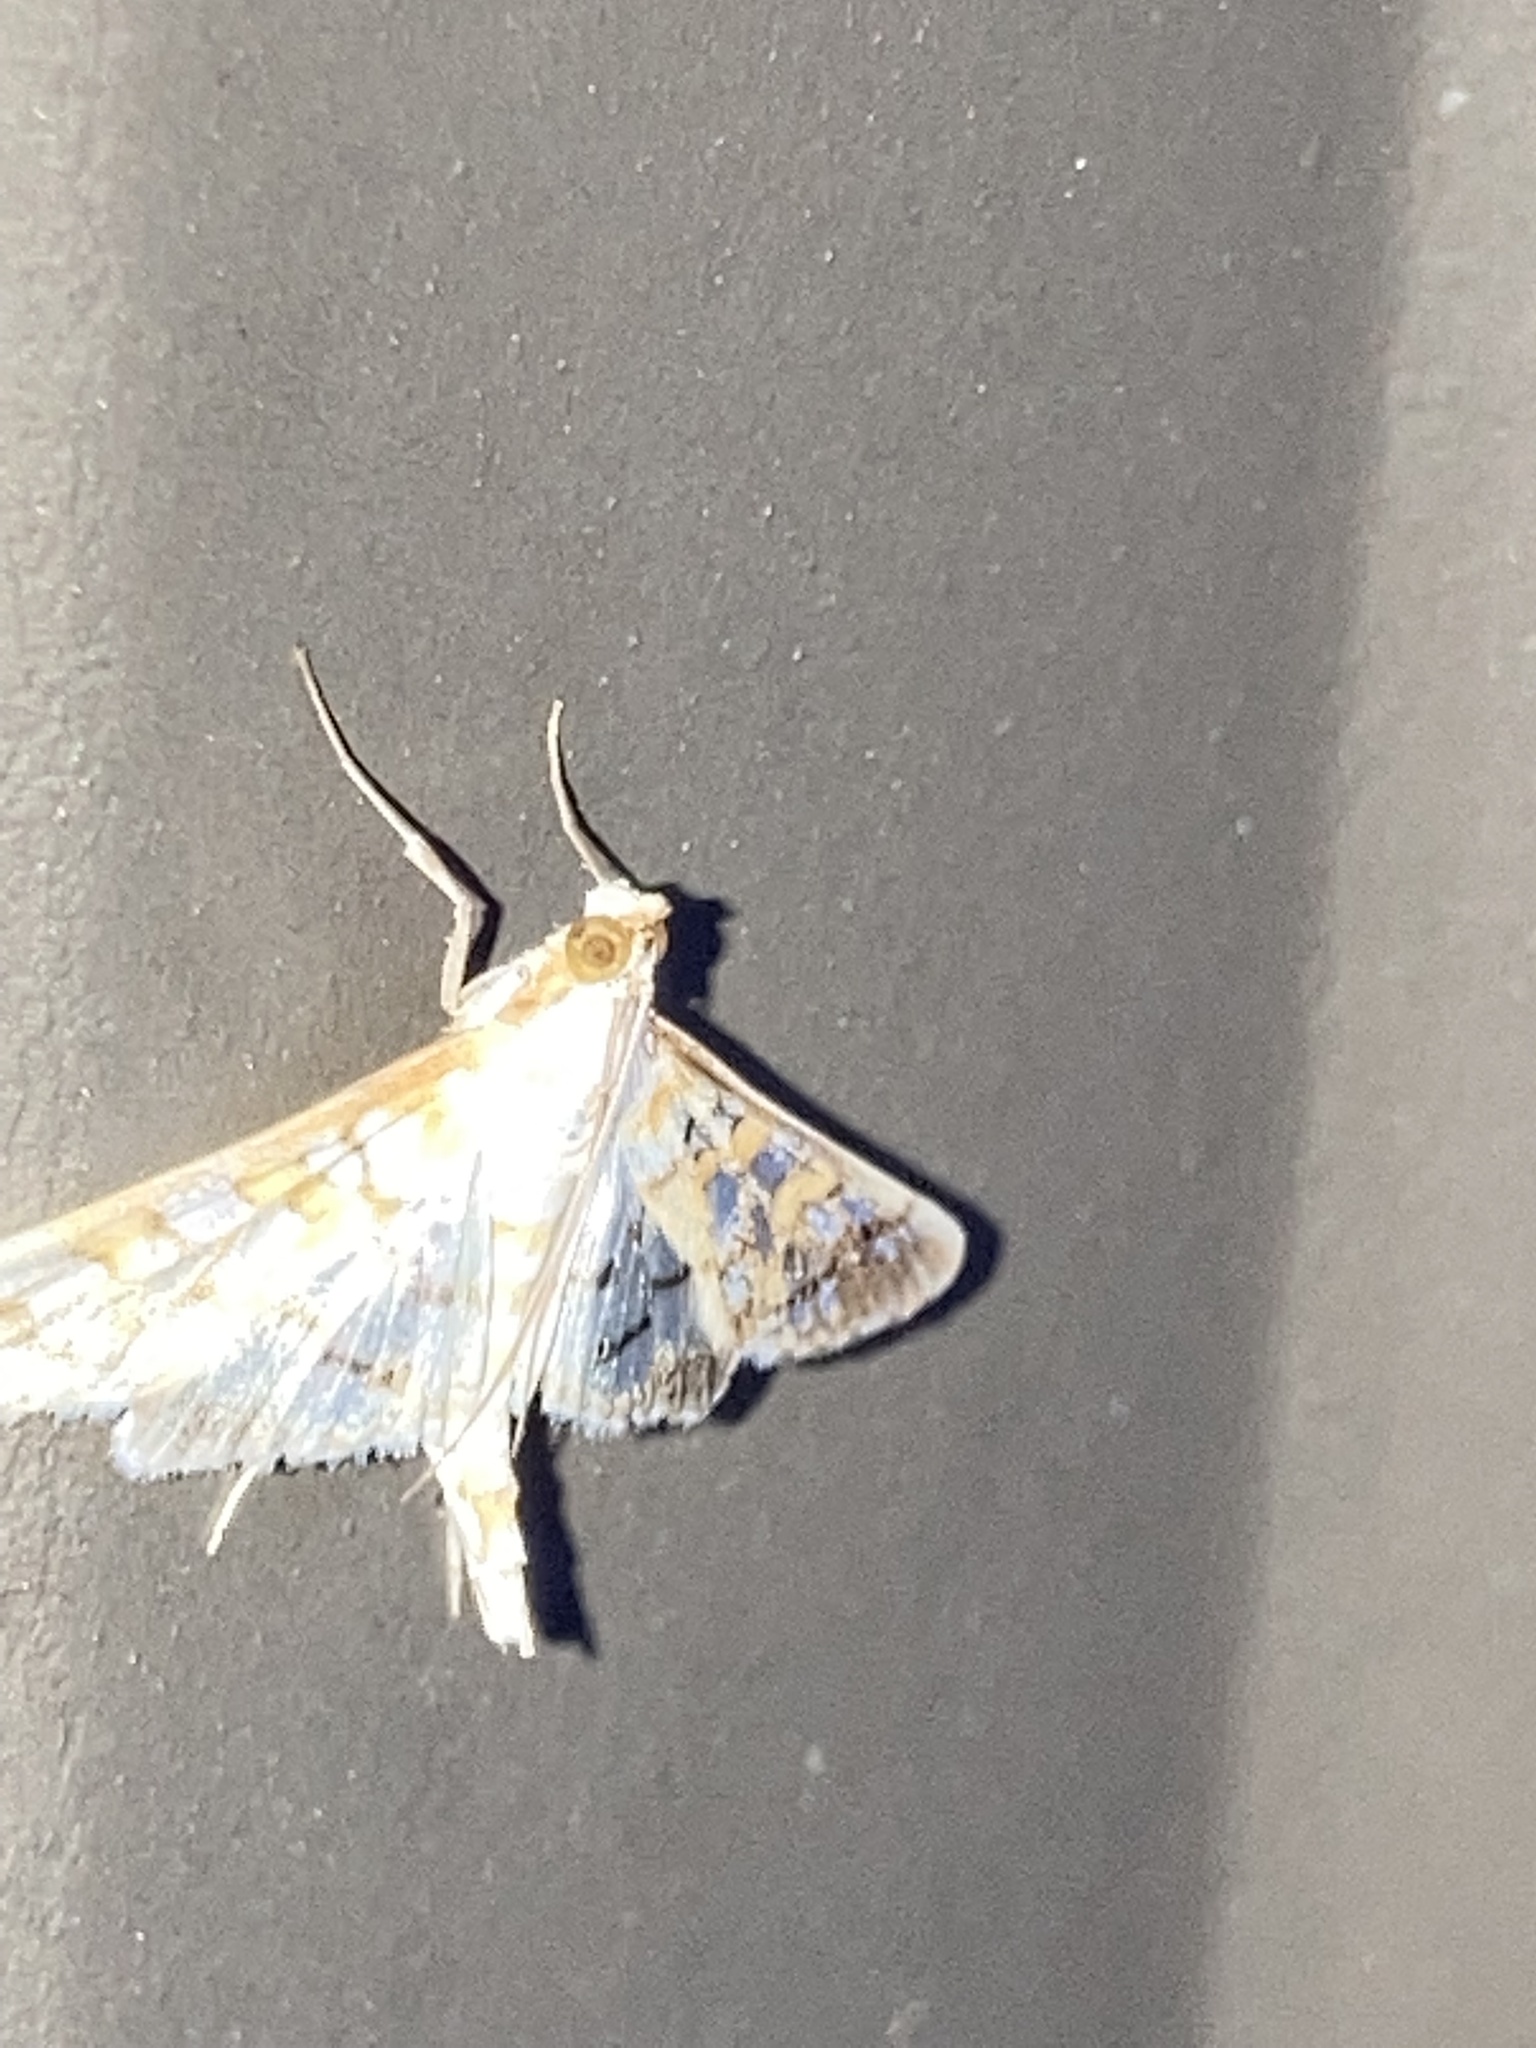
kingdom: Animalia
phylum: Arthropoda
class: Insecta
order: Lepidoptera
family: Crambidae
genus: Epipagis
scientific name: Epipagis fenestralis
